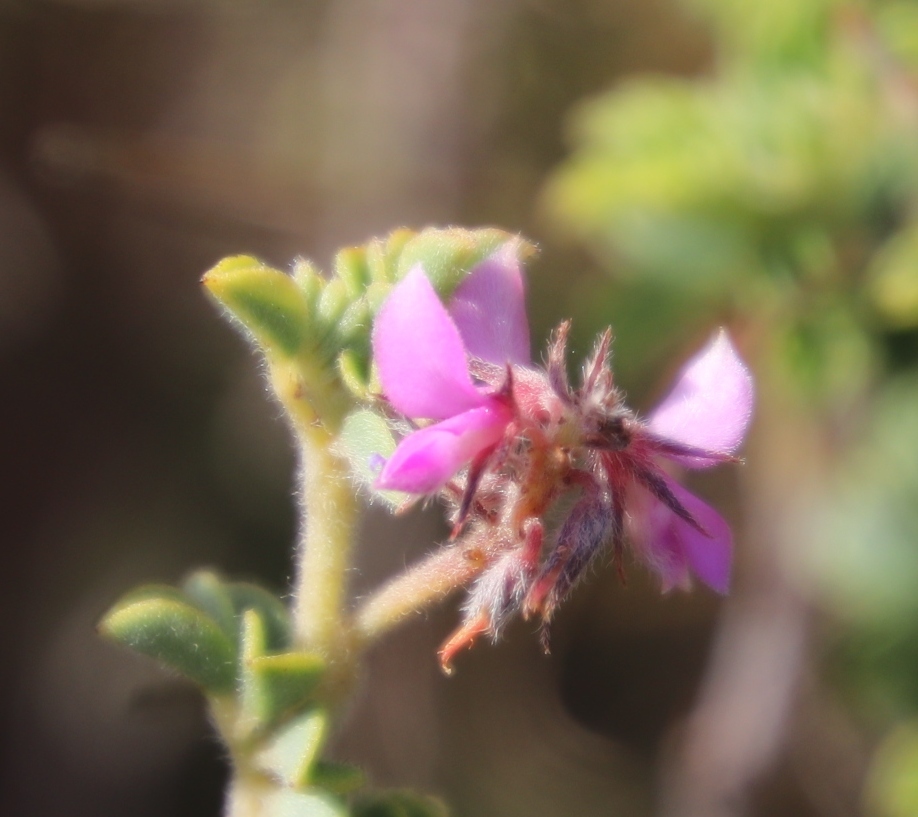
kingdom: Plantae
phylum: Tracheophyta
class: Magnoliopsida
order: Fabales
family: Fabaceae
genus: Indigofera
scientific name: Indigofera alopecuroides
